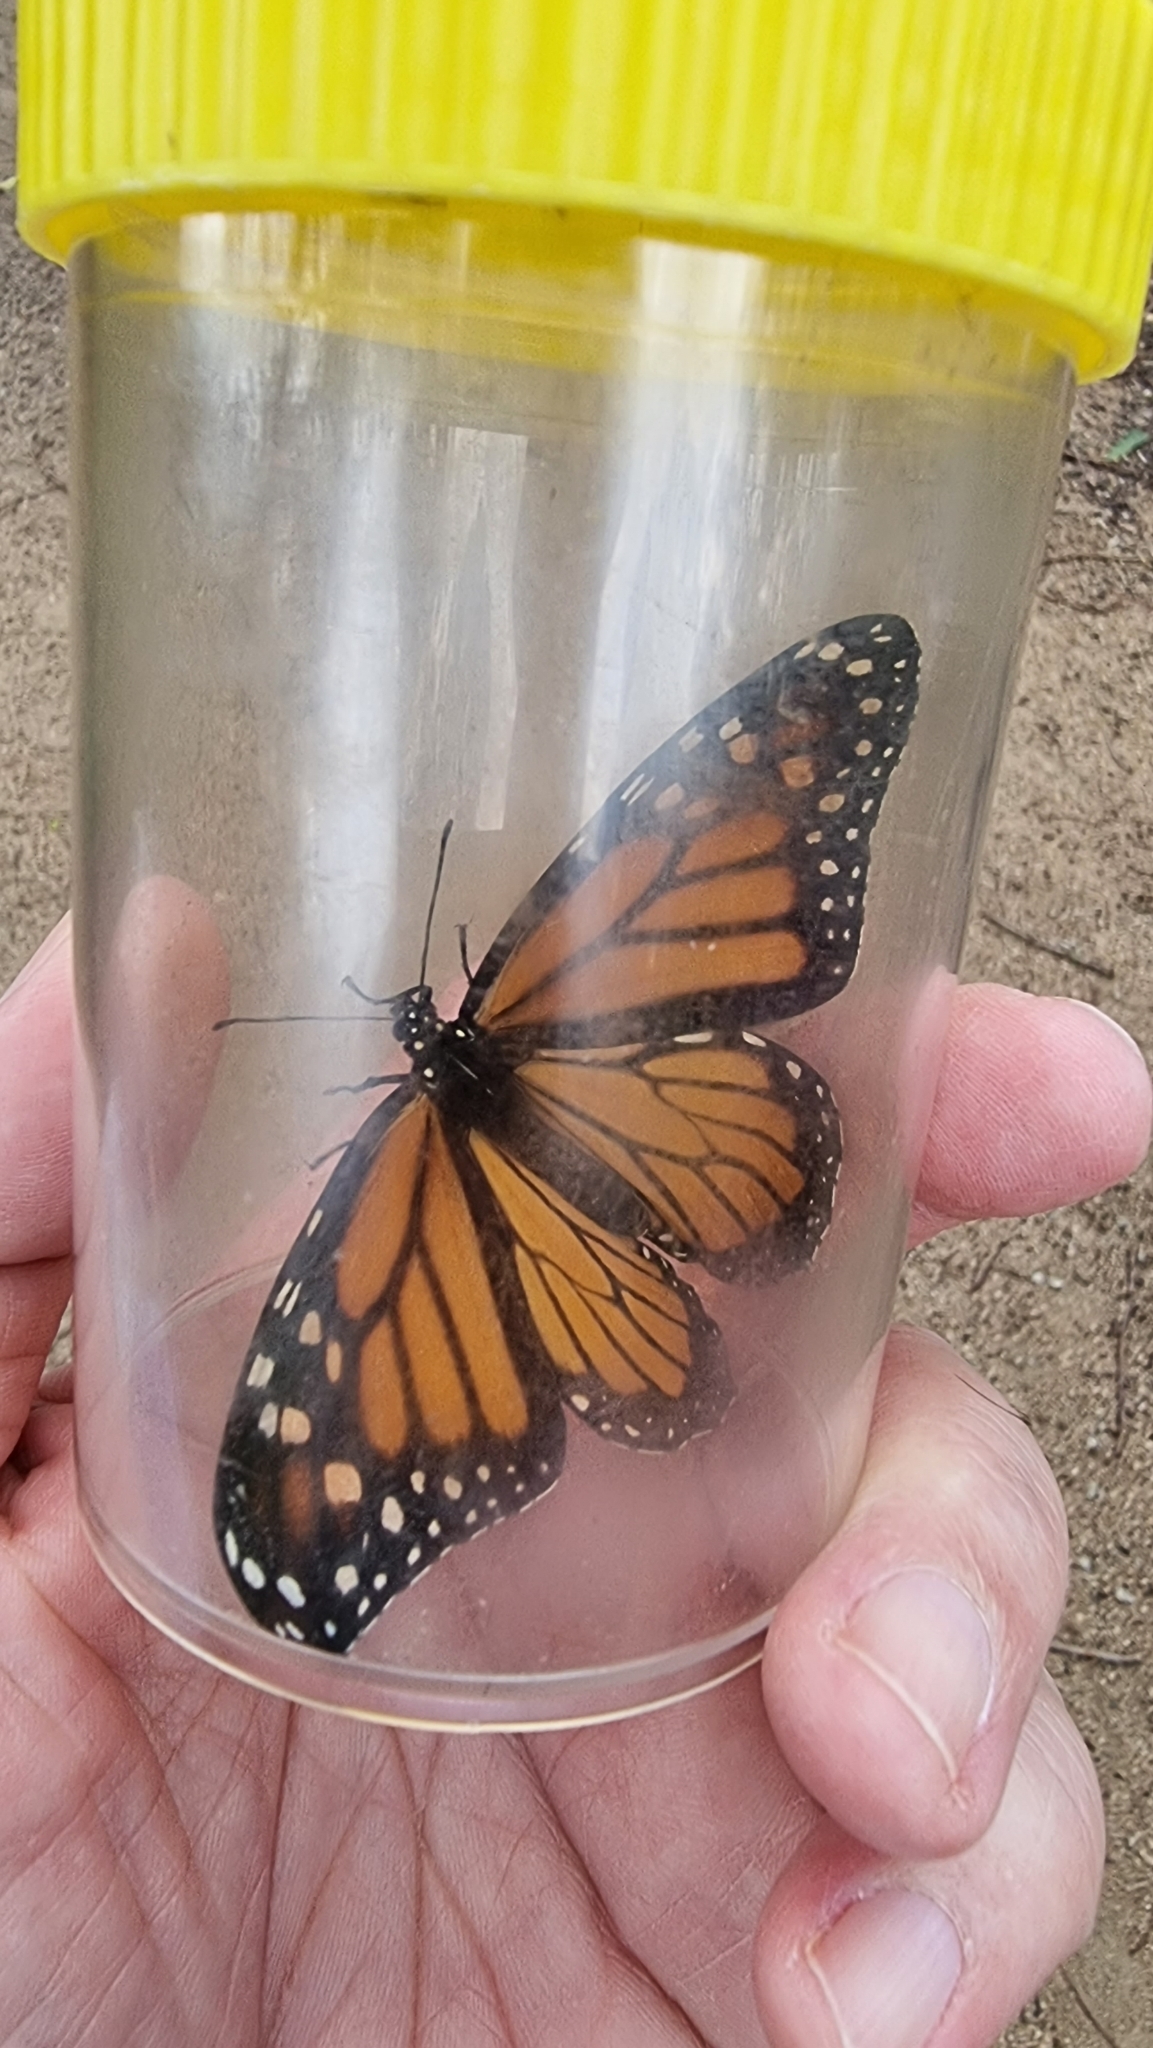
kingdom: Animalia
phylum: Arthropoda
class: Insecta
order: Lepidoptera
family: Nymphalidae
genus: Danaus
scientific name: Danaus plexippus
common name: Monarch
